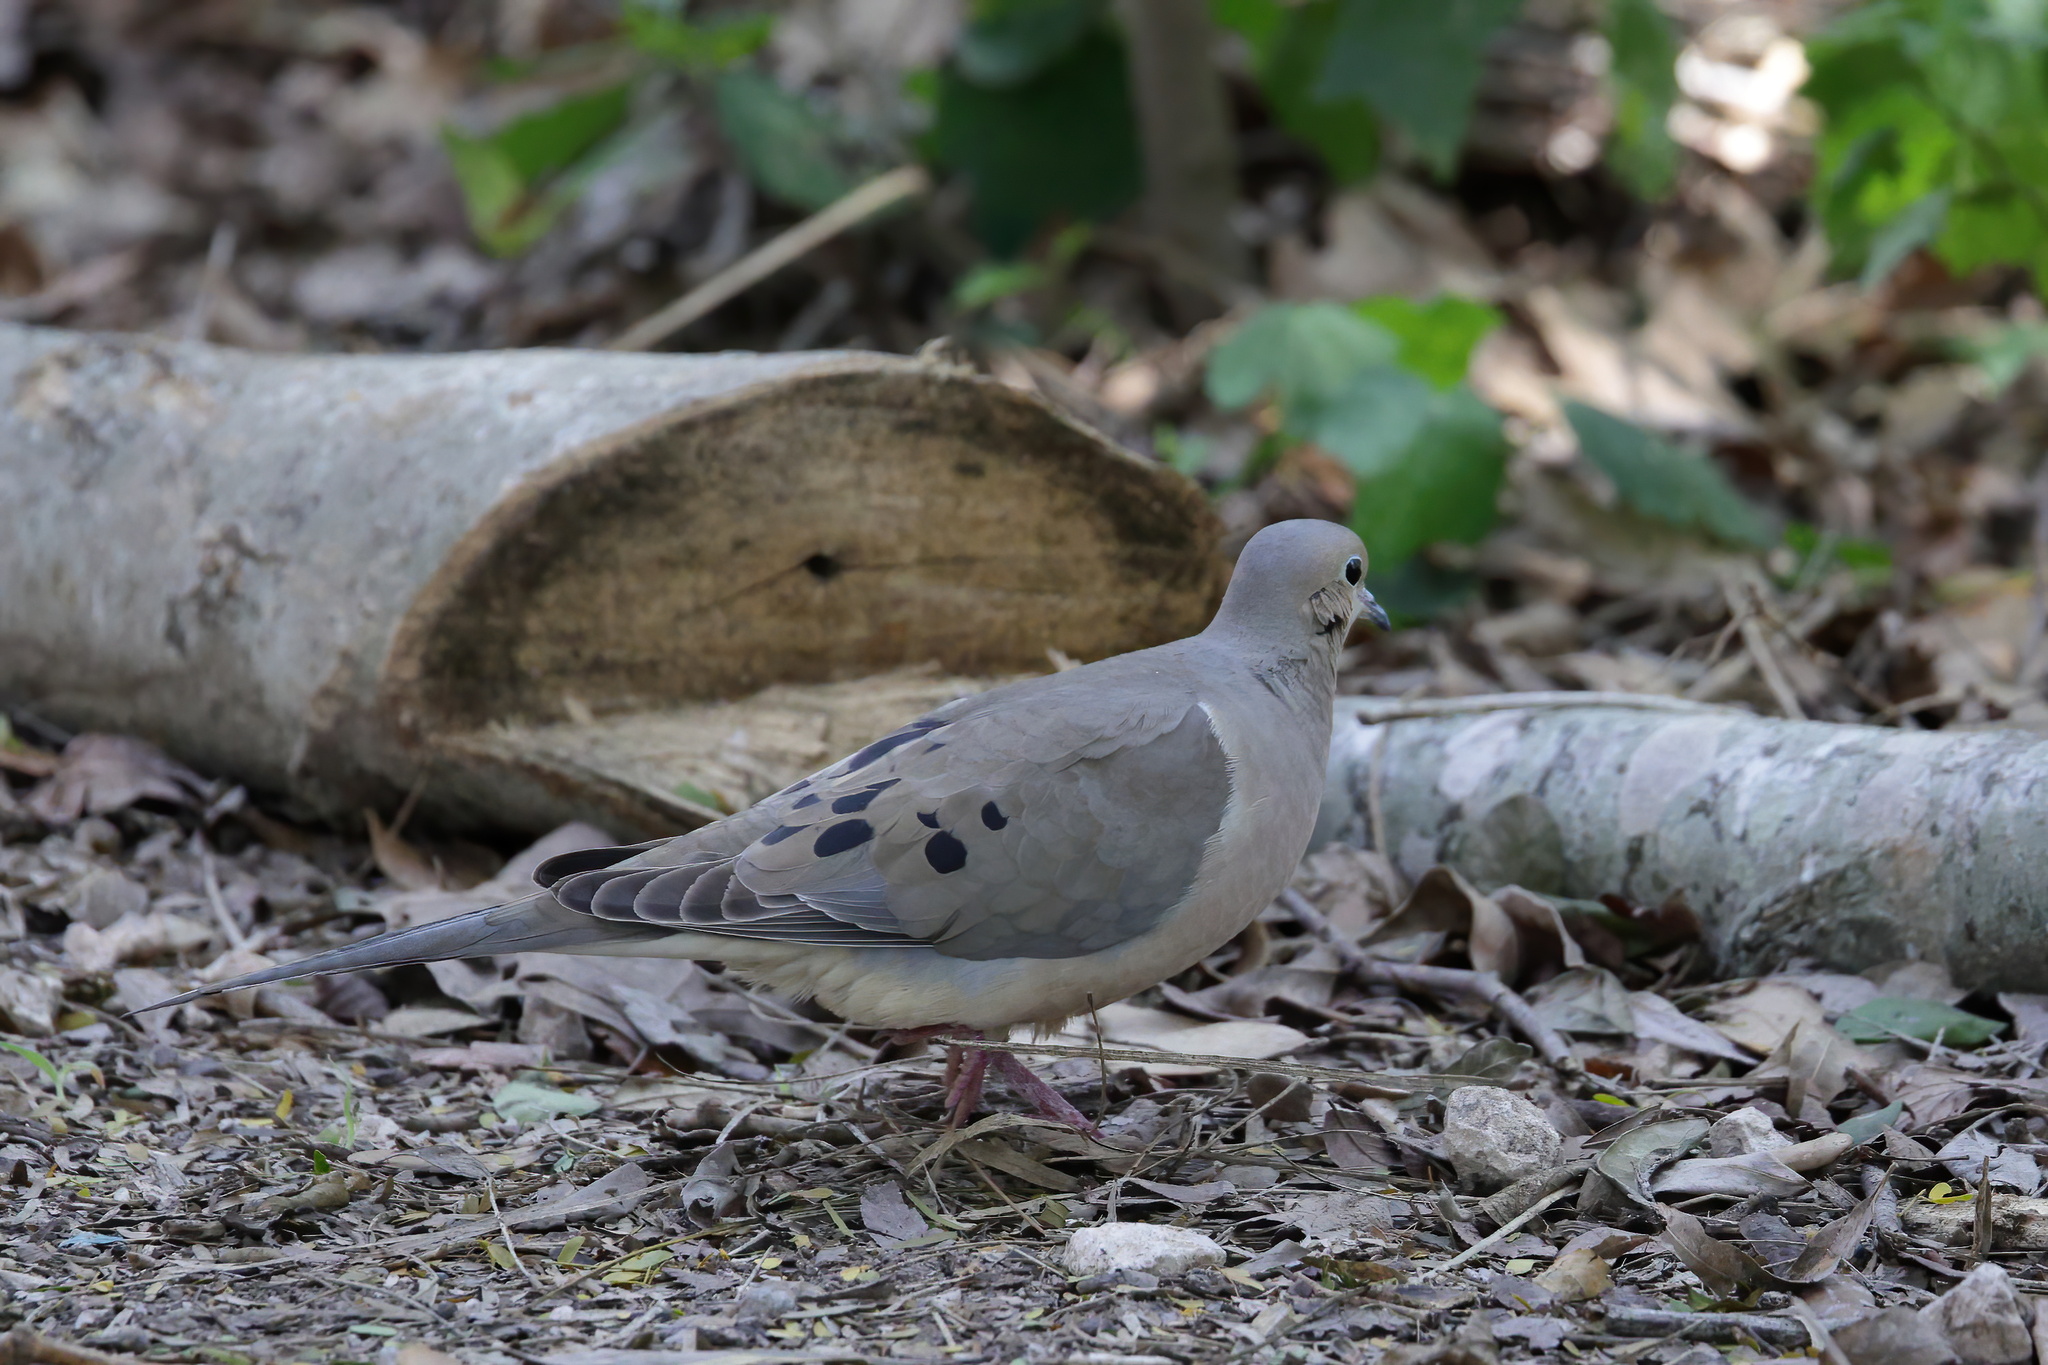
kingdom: Animalia
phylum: Chordata
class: Aves
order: Columbiformes
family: Columbidae
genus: Zenaida
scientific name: Zenaida macroura
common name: Mourning dove
